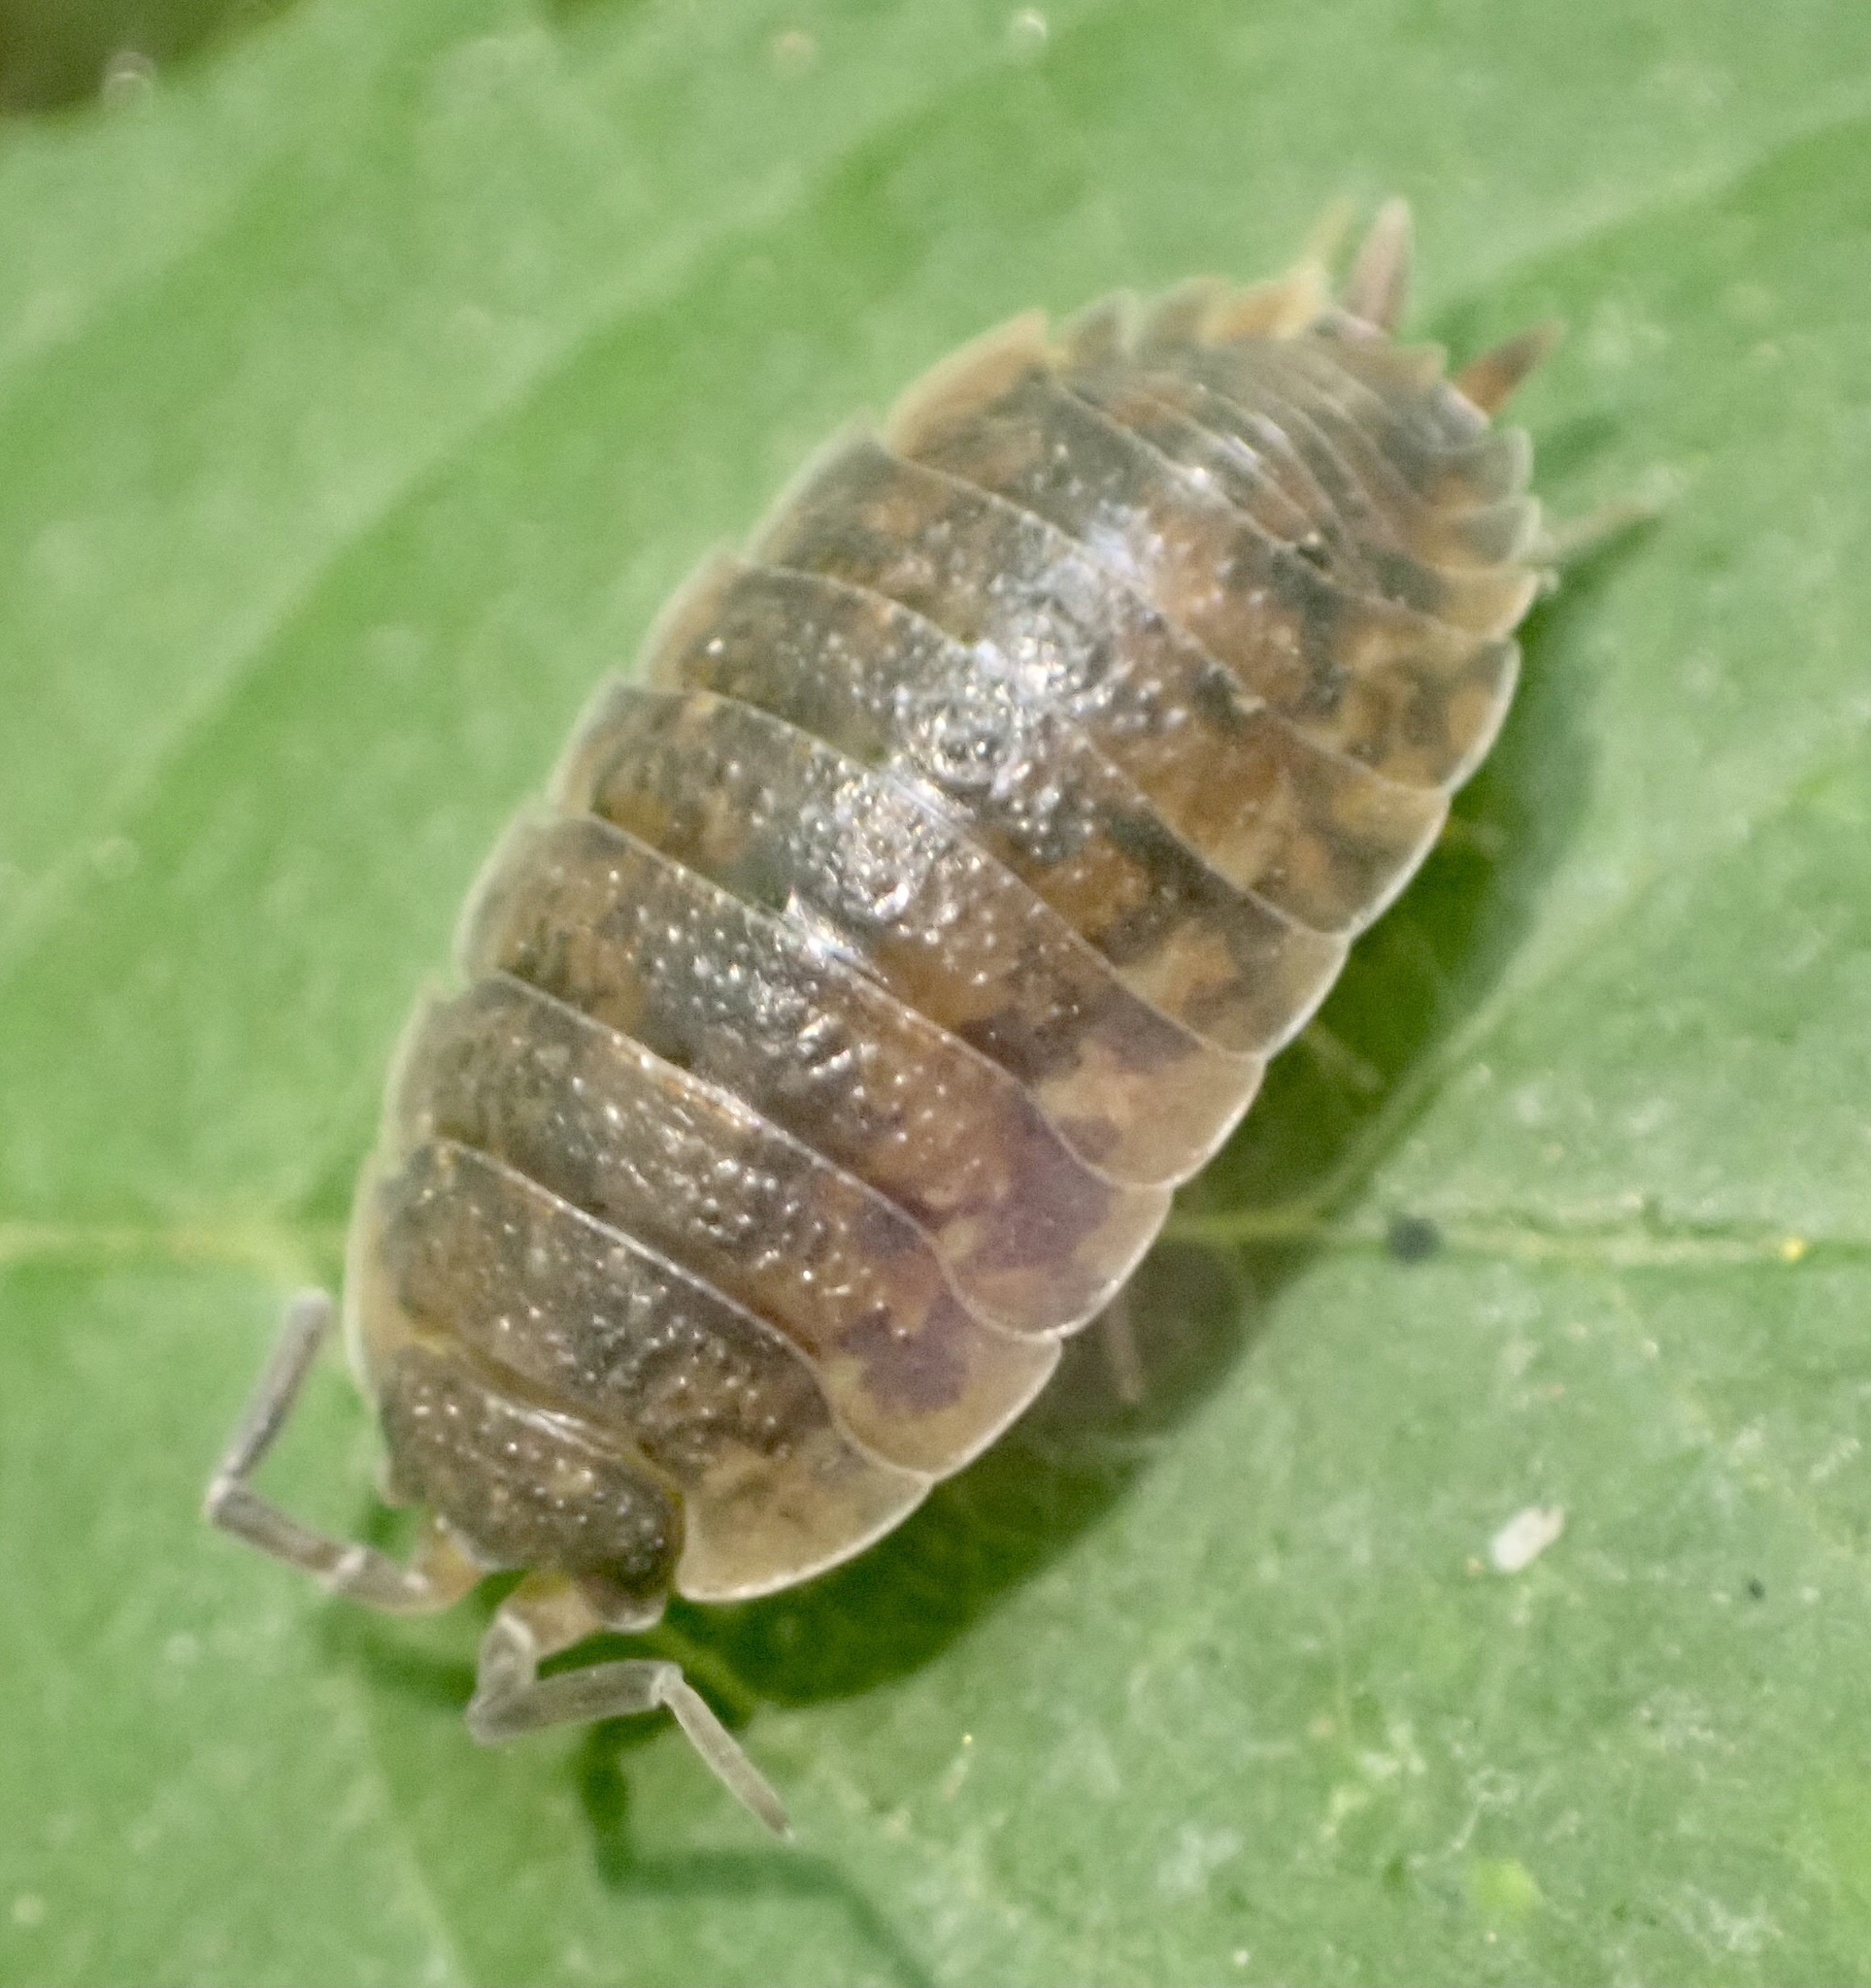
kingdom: Animalia
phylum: Arthropoda
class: Malacostraca
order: Isopoda
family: Porcellionidae
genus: Porcellio
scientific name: Porcellio scaber
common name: Common rough woodlouse
